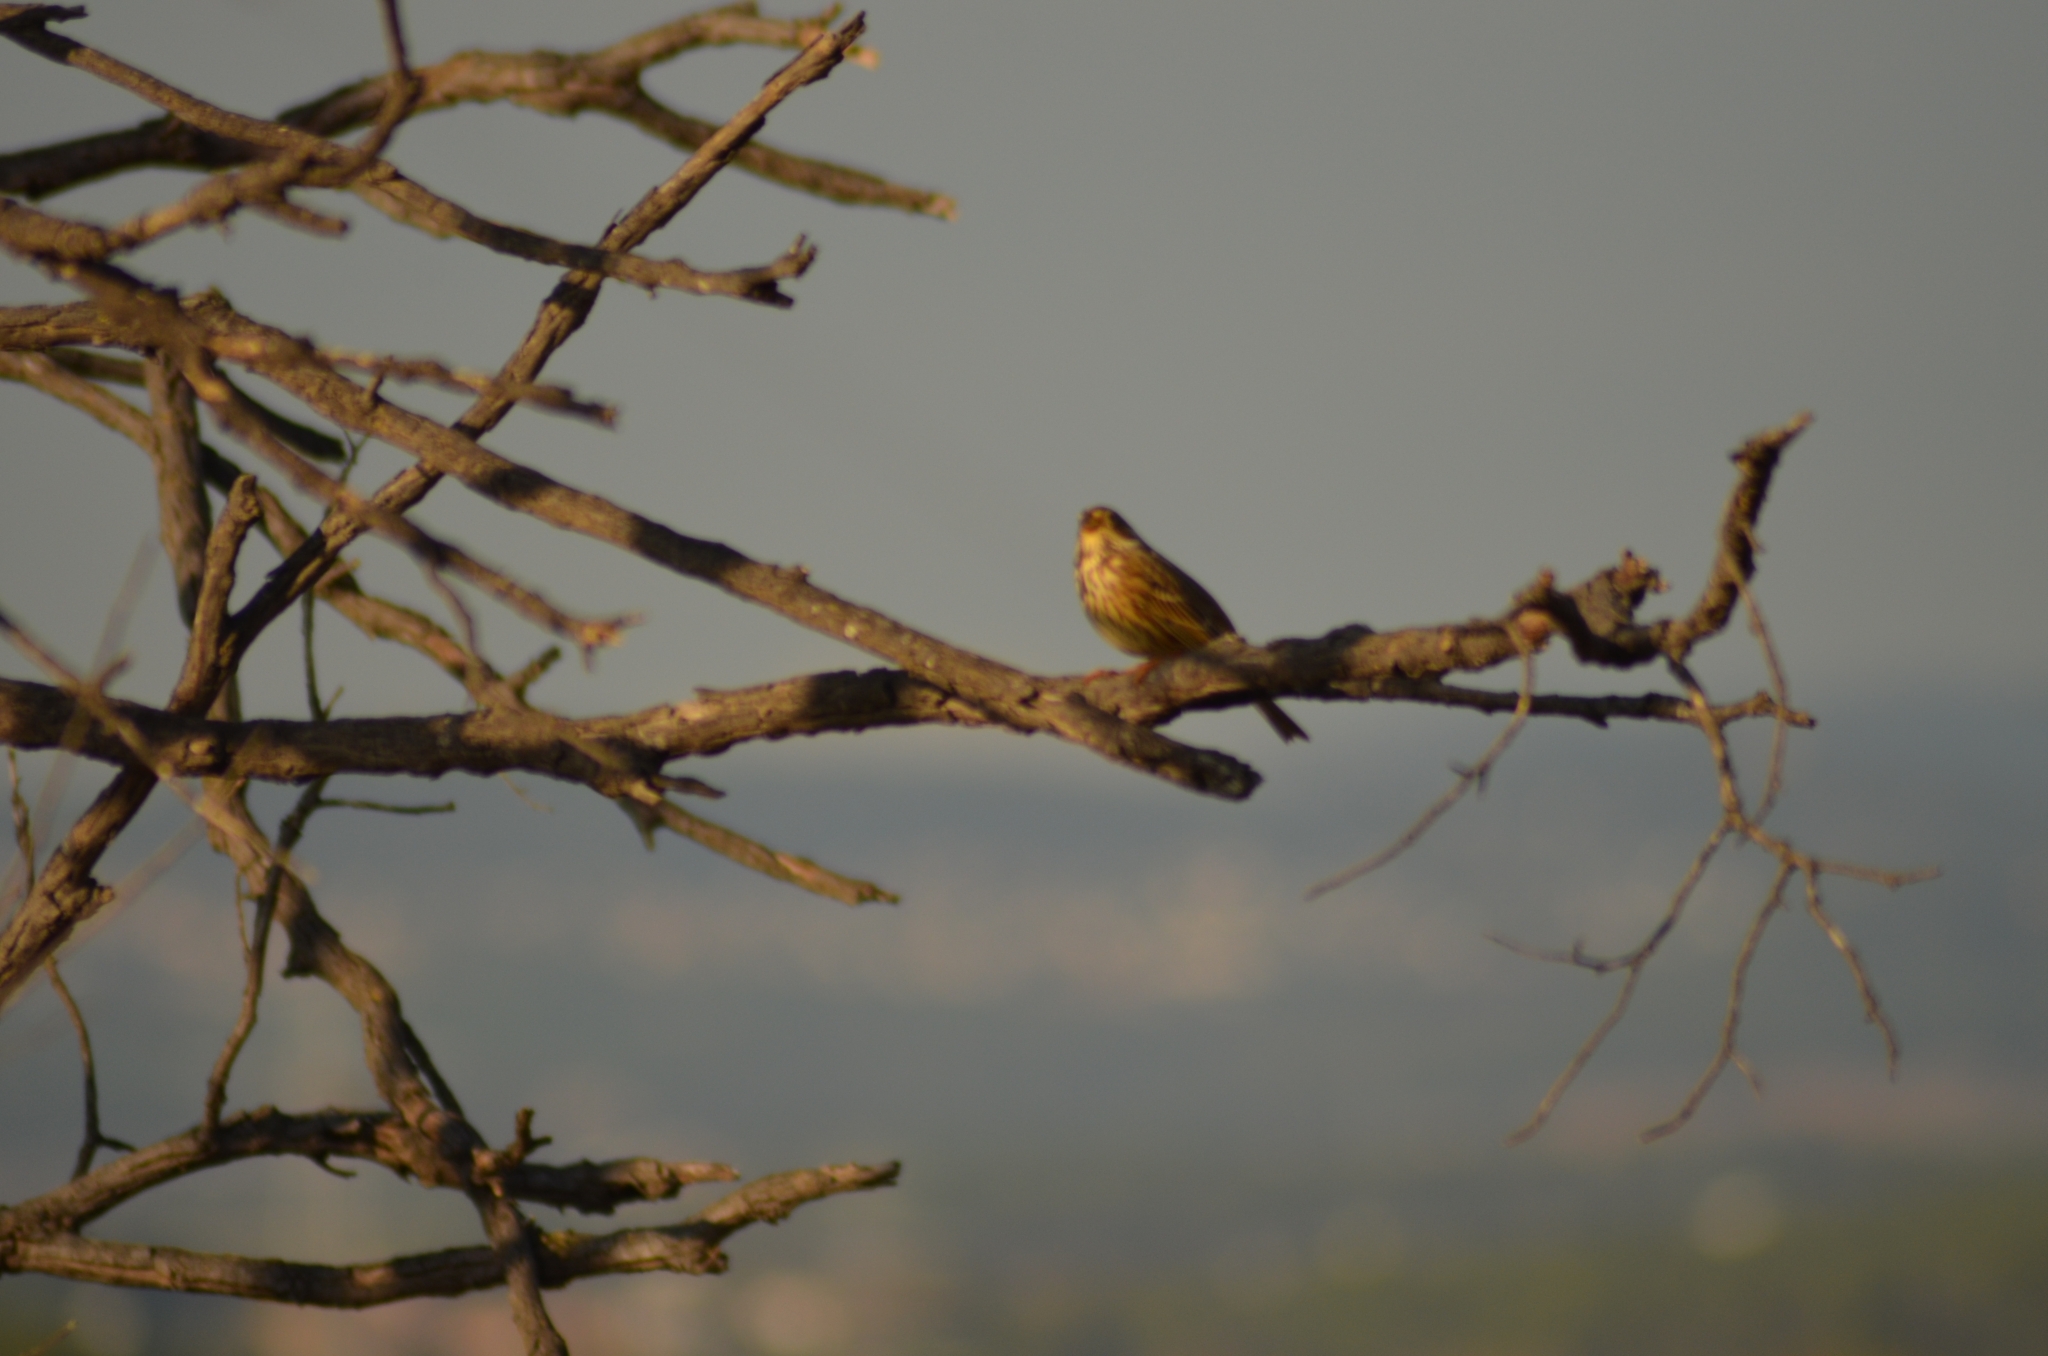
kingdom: Animalia
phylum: Chordata
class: Aves
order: Passeriformes
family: Emberizidae
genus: Emberiza
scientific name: Emberiza calandra
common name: Corn bunting
